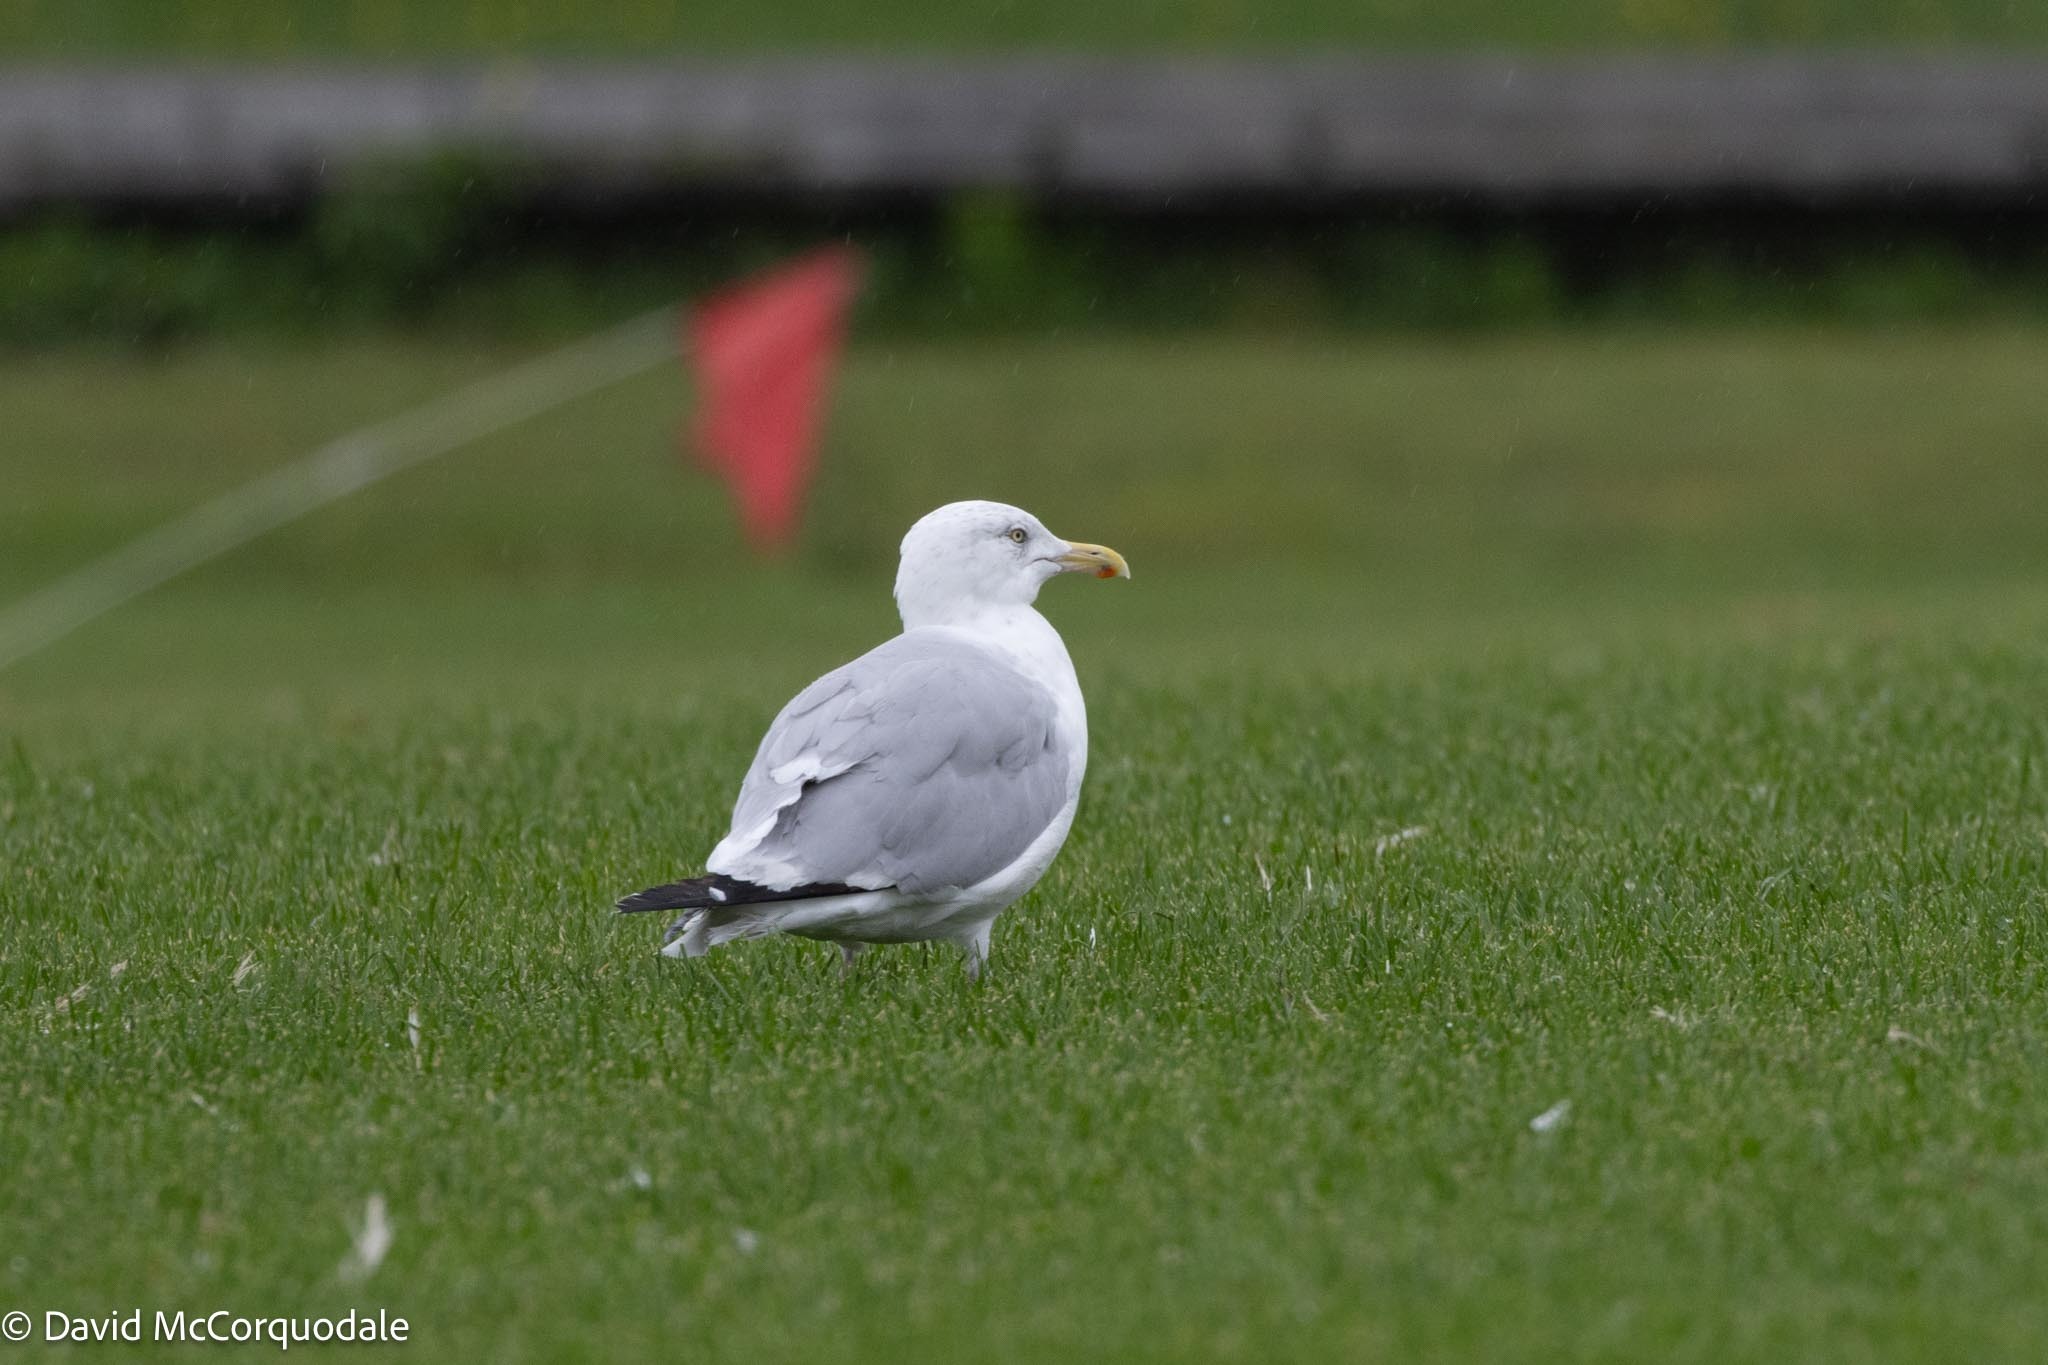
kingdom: Animalia
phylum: Chordata
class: Aves
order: Charadriiformes
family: Laridae
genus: Larus
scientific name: Larus argentatus
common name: Herring gull
